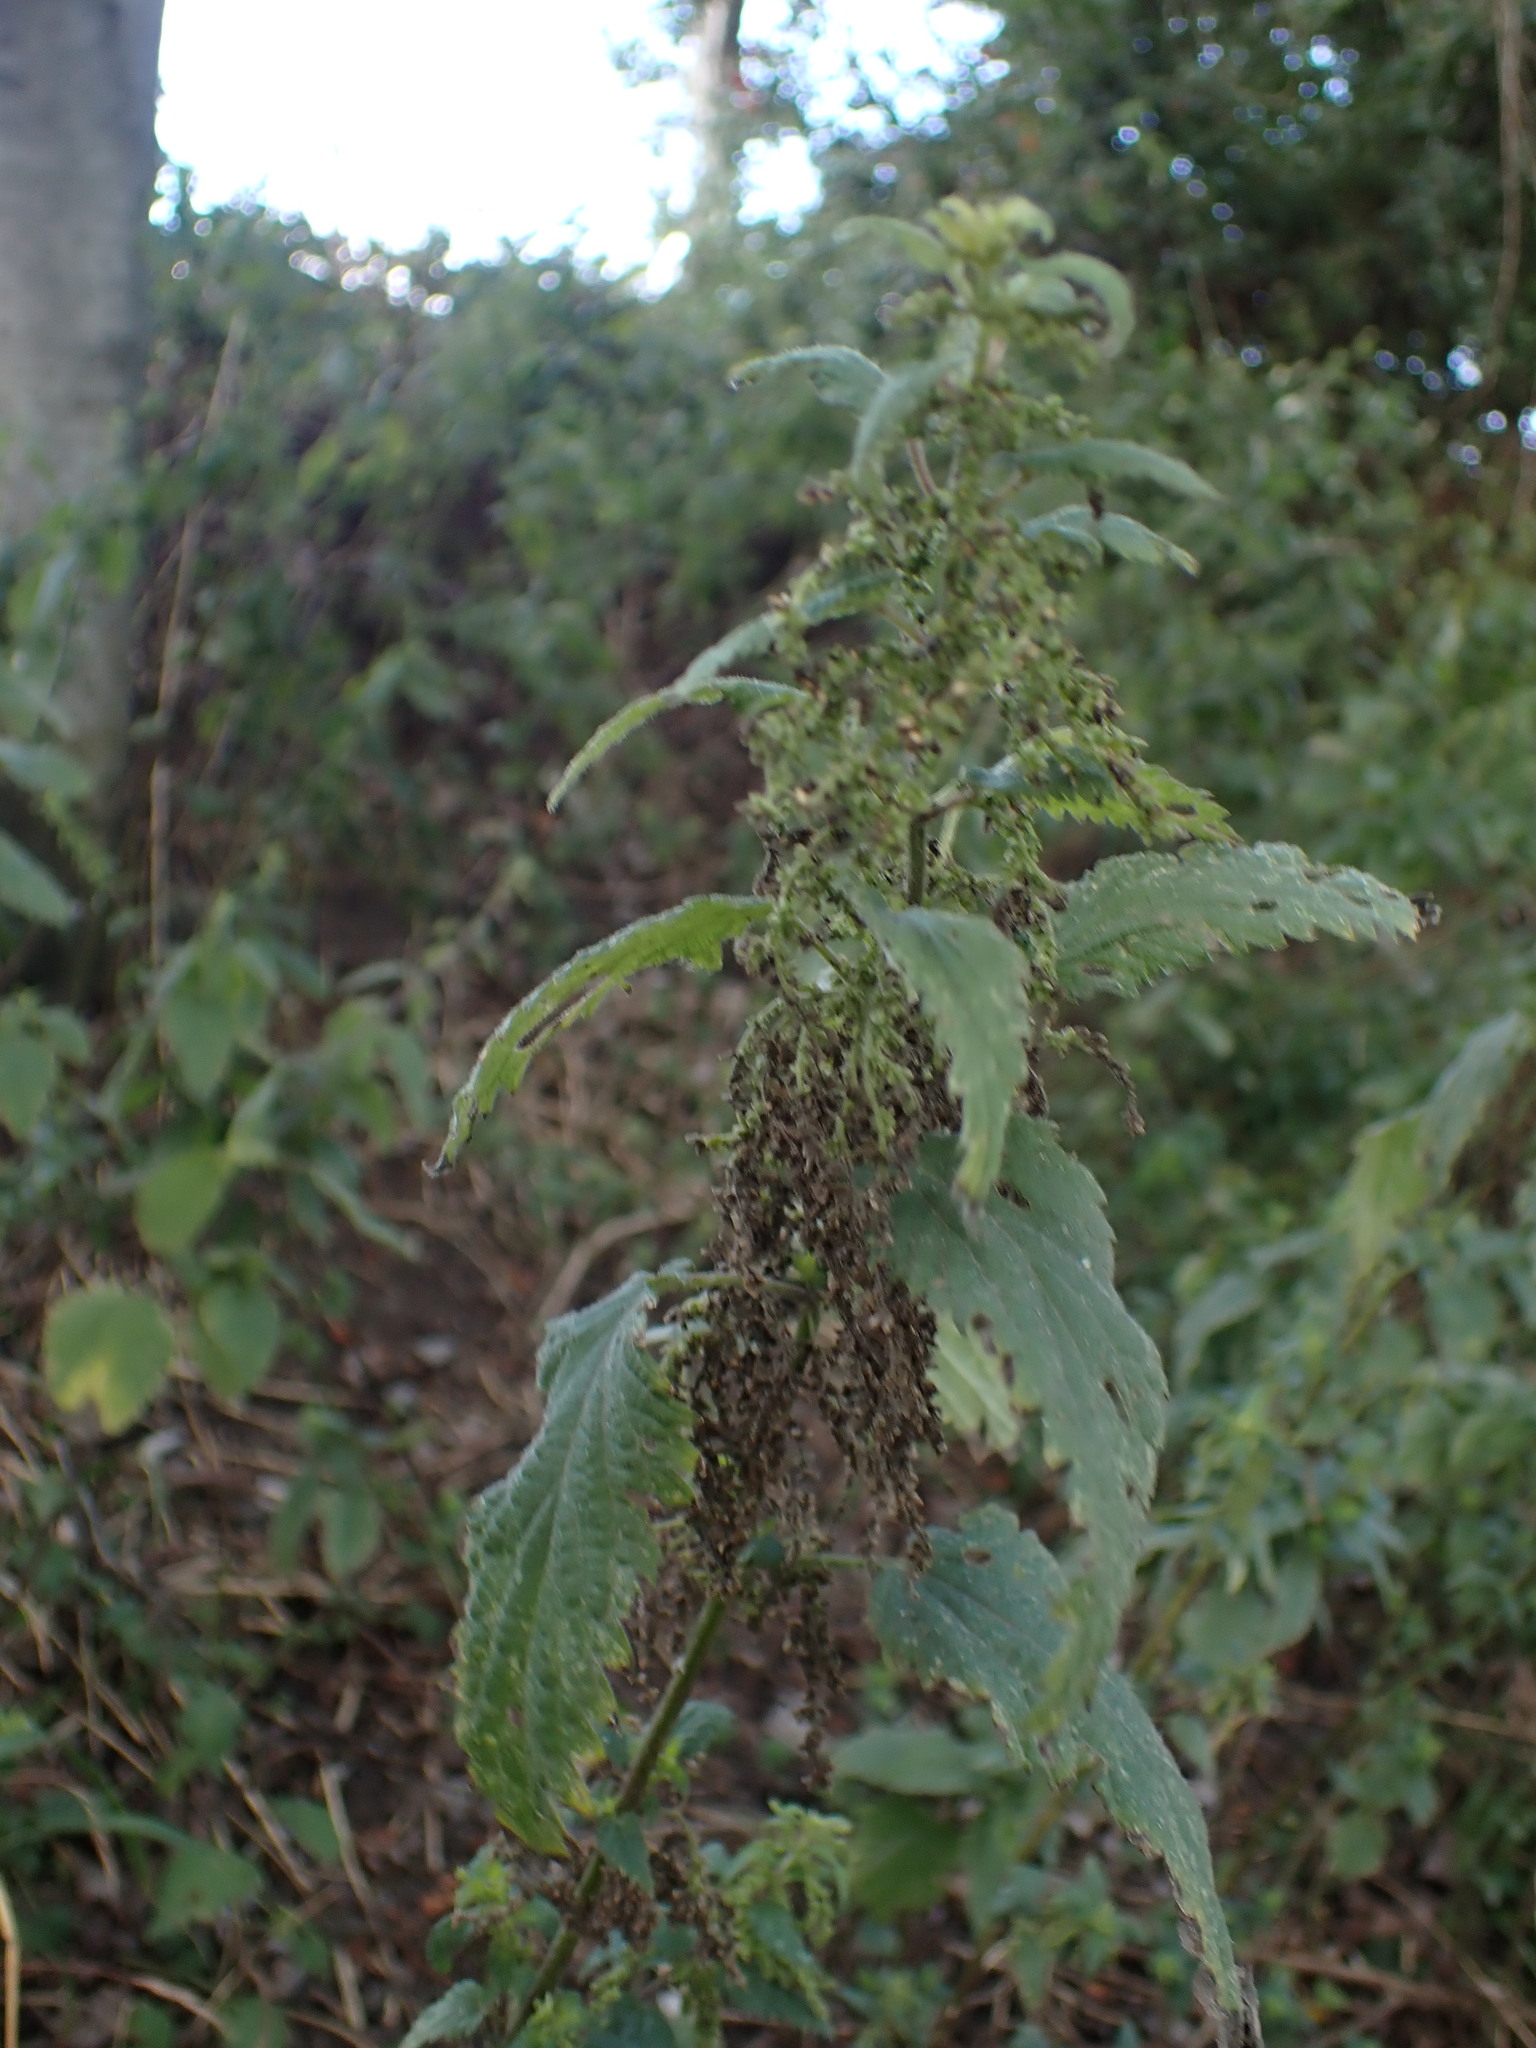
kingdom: Plantae
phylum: Tracheophyta
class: Magnoliopsida
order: Rosales
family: Urticaceae
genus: Urtica
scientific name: Urtica dioica
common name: Common nettle
